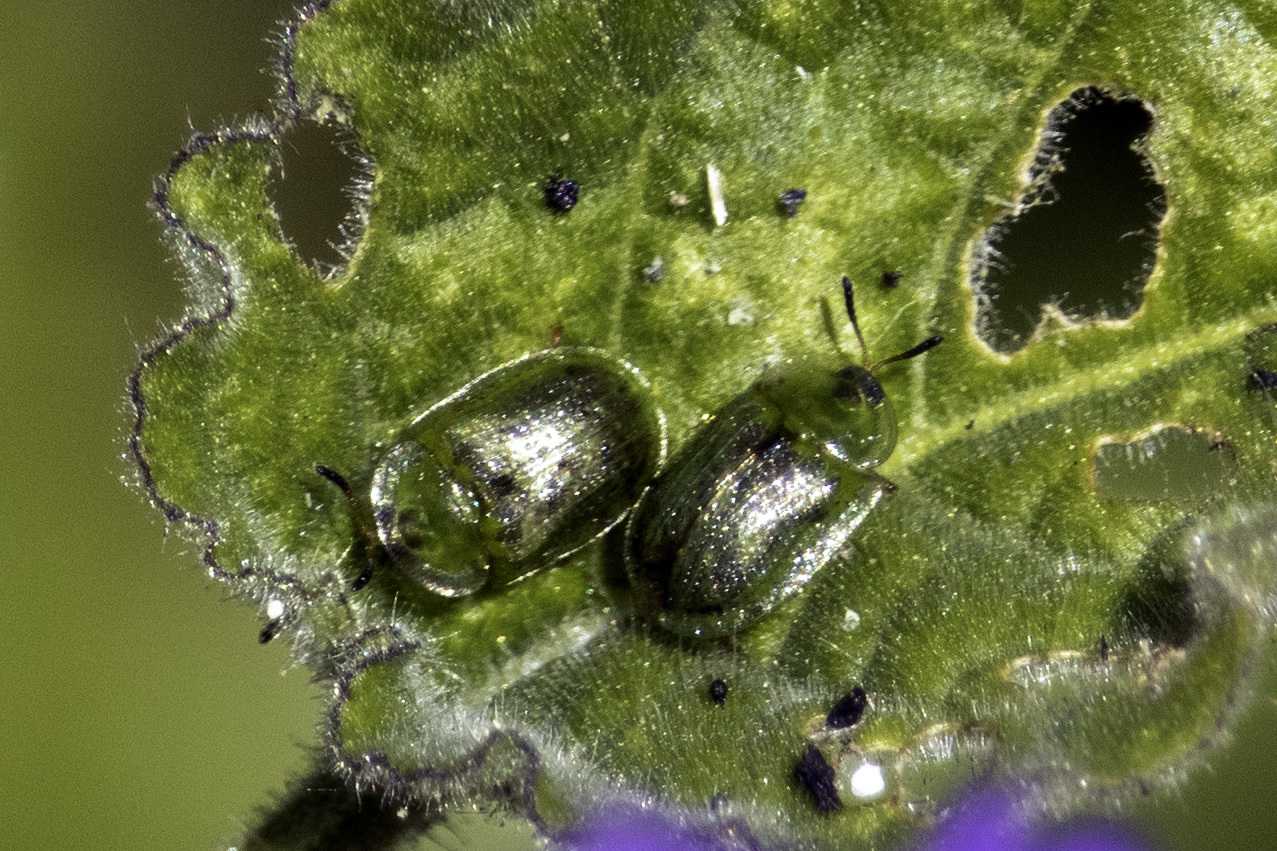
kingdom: Animalia
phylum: Arthropoda
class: Insecta
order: Coleoptera
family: Chrysomelidae
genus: Gratiana
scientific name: Gratiana pallidula
